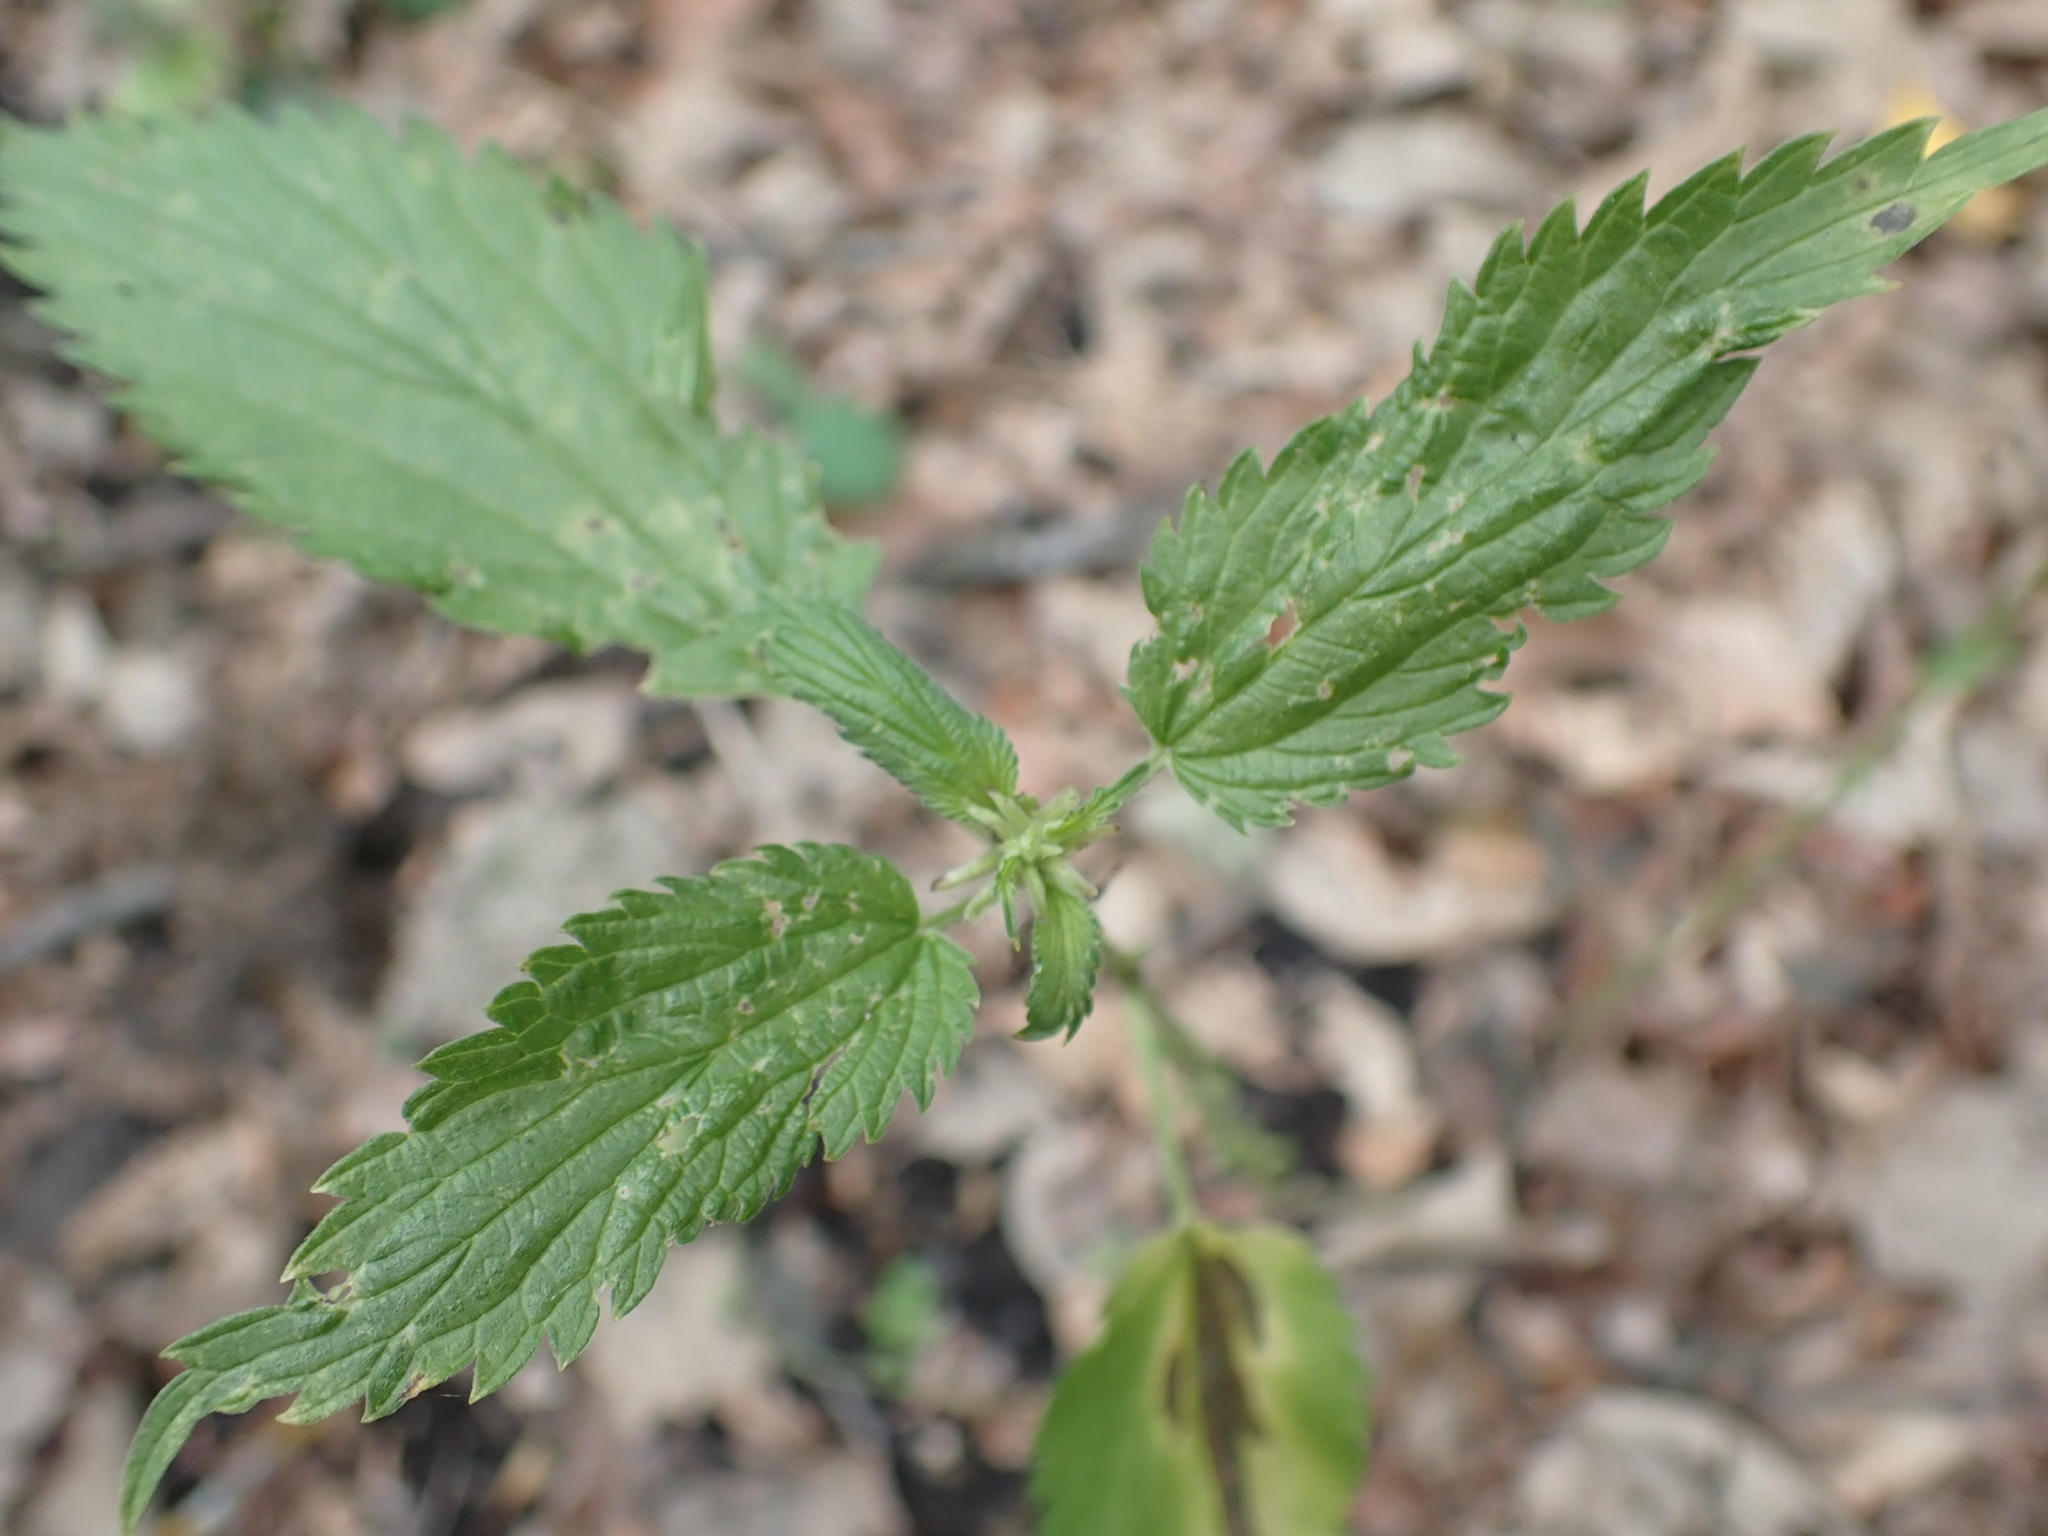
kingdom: Plantae
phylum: Tracheophyta
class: Magnoliopsida
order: Rosales
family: Urticaceae
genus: Urtica
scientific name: Urtica gracilis
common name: Slender stinging nettle
